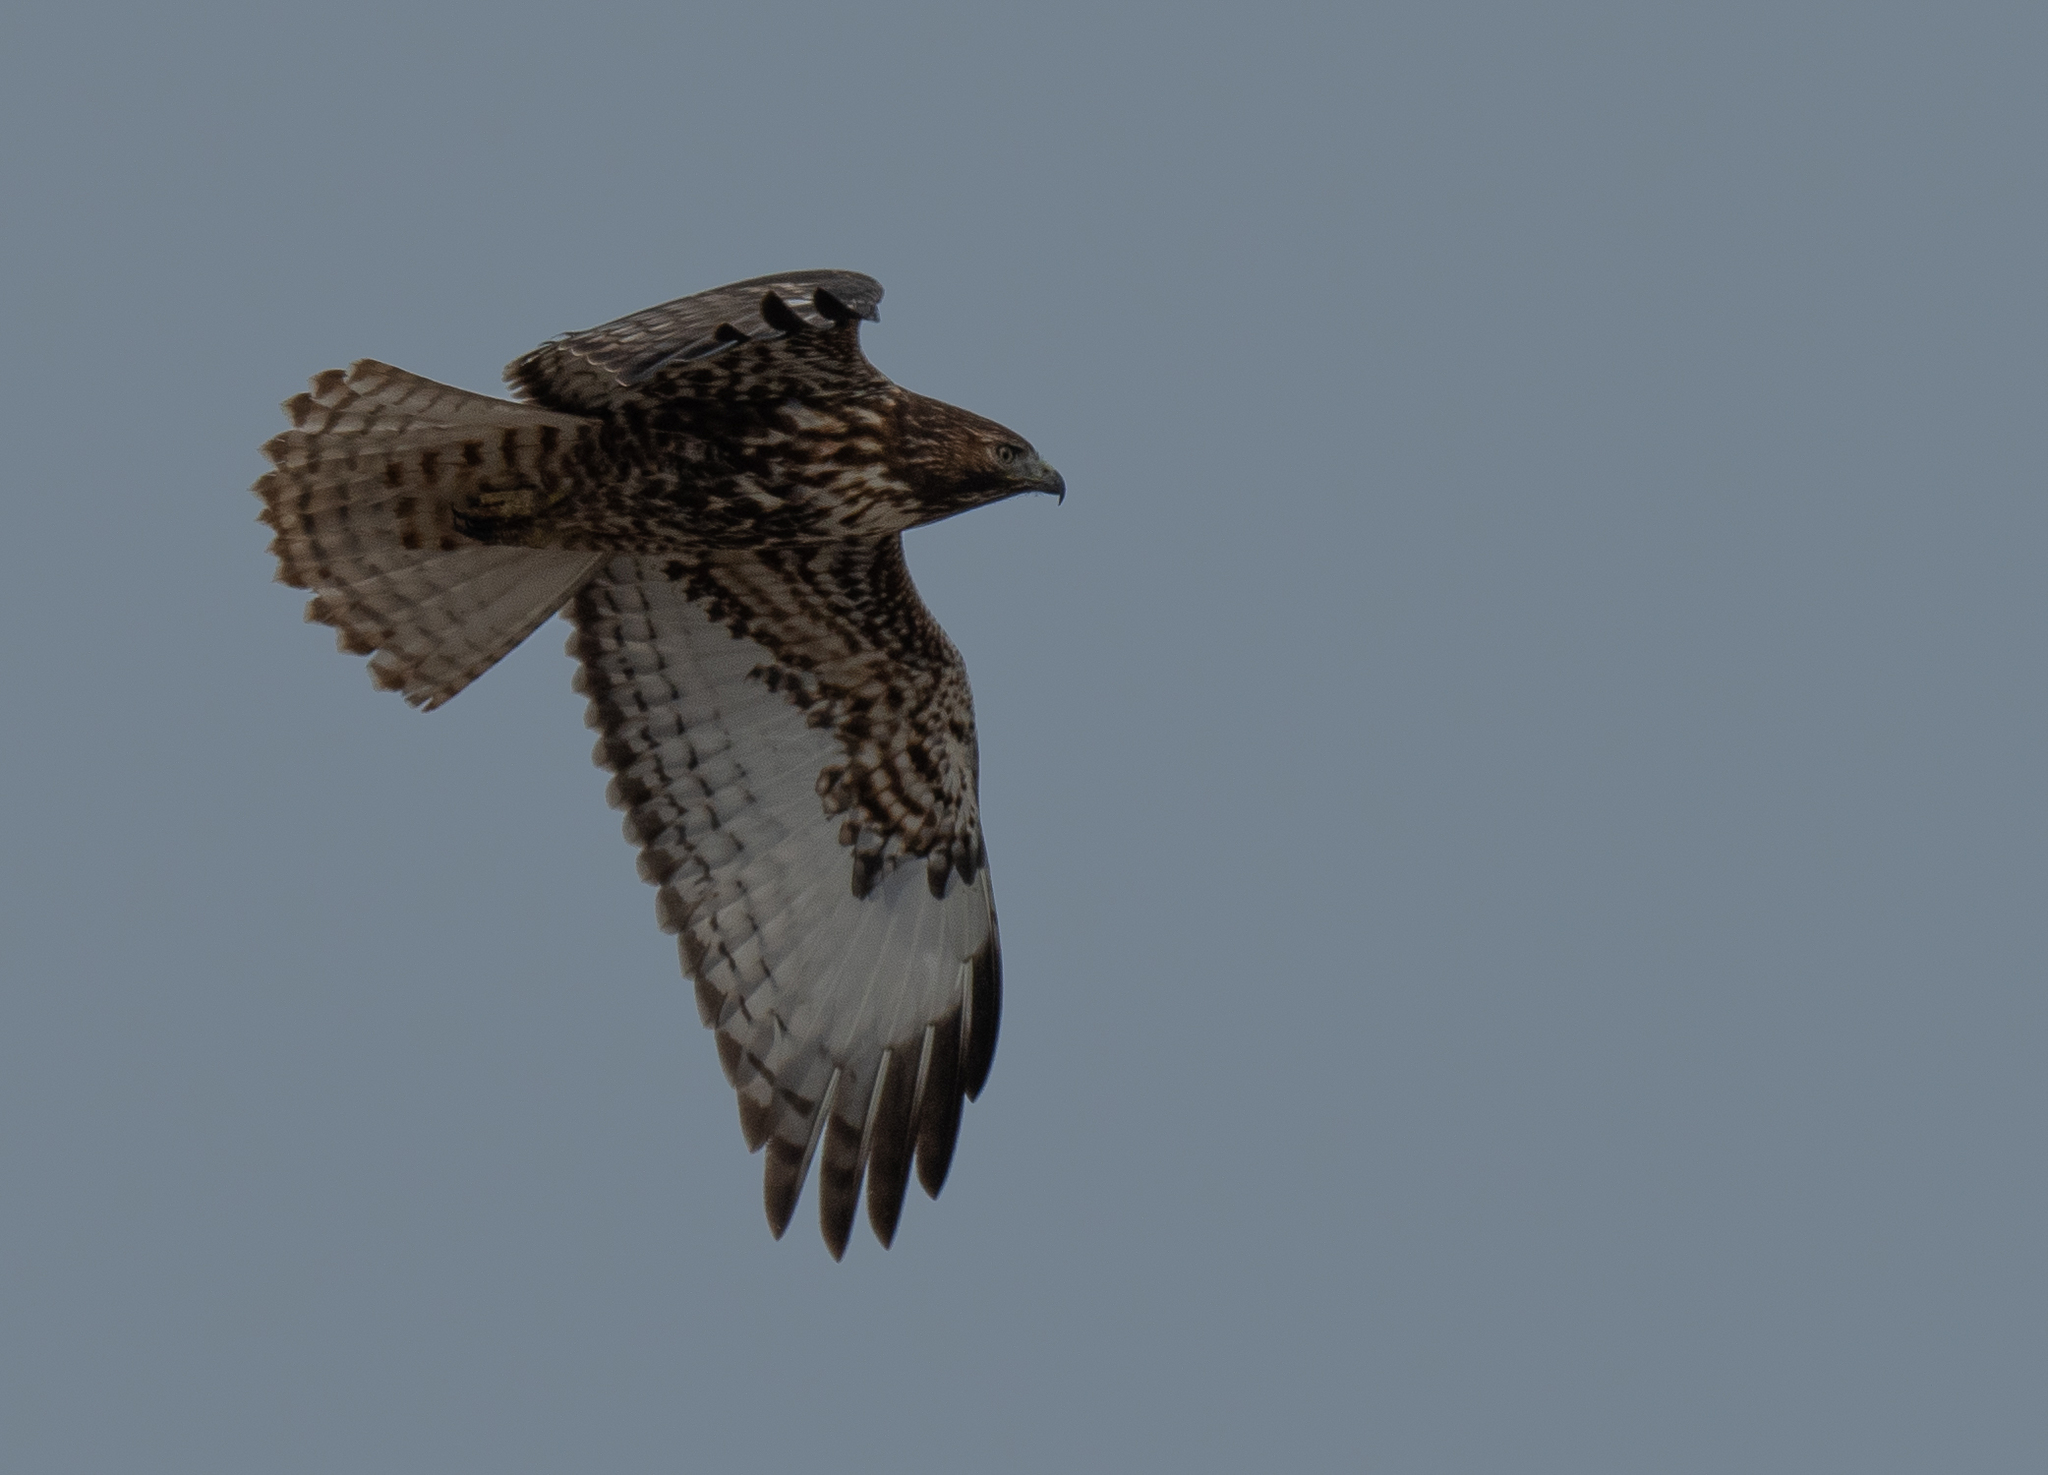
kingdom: Animalia
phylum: Chordata
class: Aves
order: Accipitriformes
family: Accipitridae
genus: Buteo
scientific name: Buteo jamaicensis
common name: Red-tailed hawk
